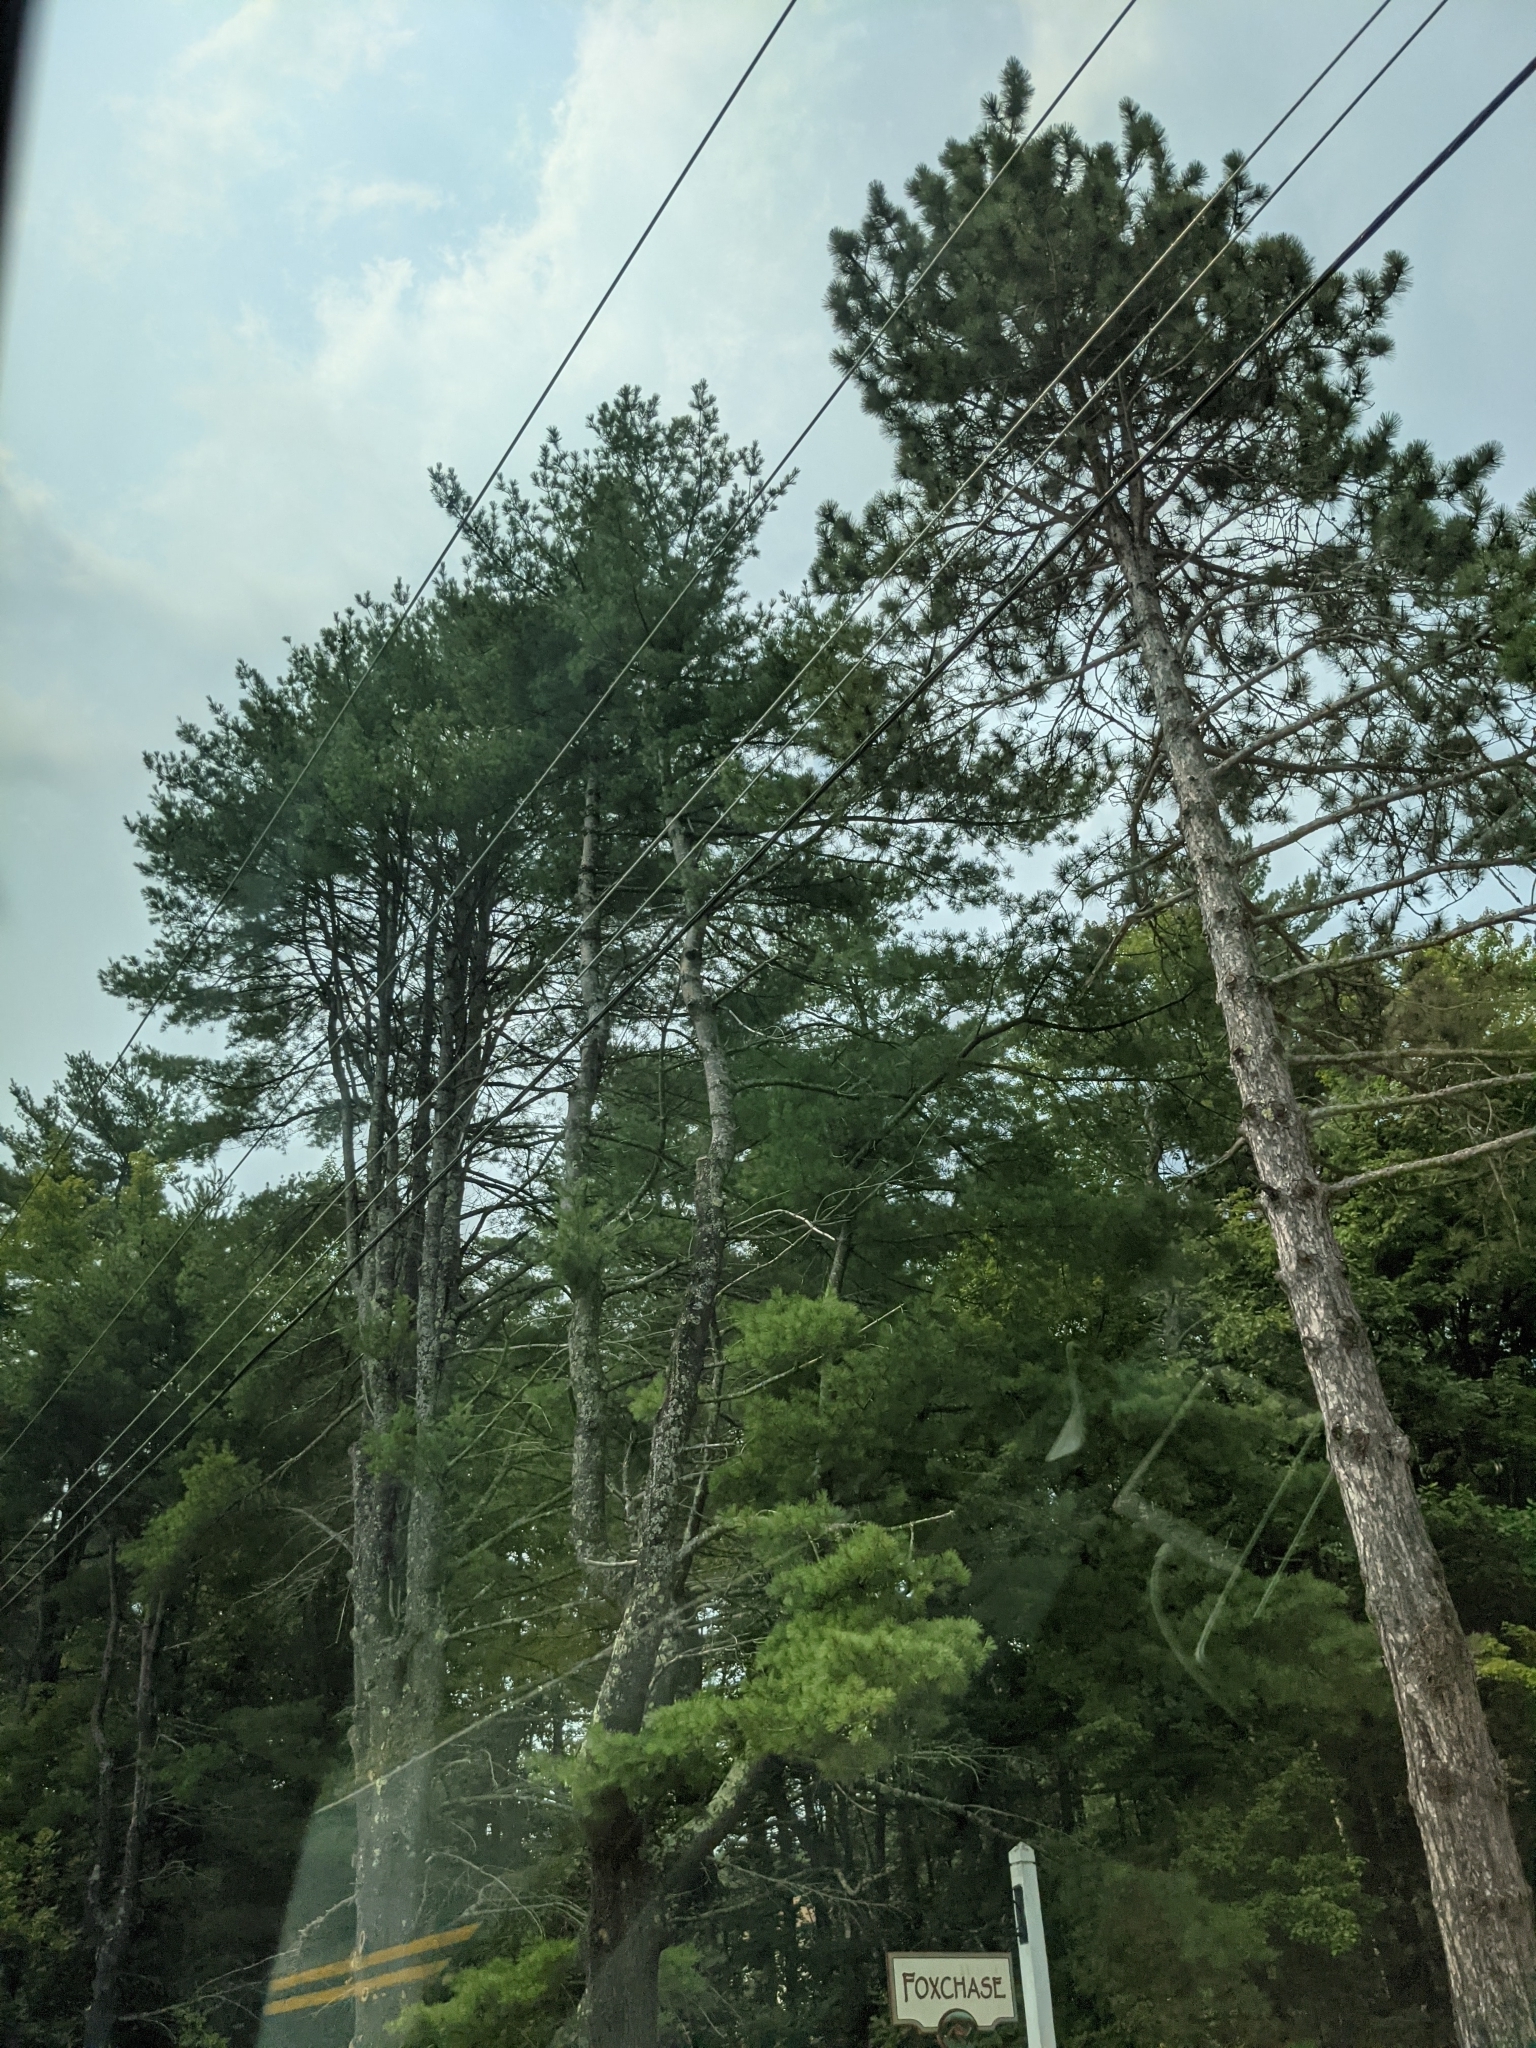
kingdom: Plantae
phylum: Tracheophyta
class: Pinopsida
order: Pinales
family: Pinaceae
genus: Pinus
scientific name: Pinus strobus
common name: Weymouth pine
